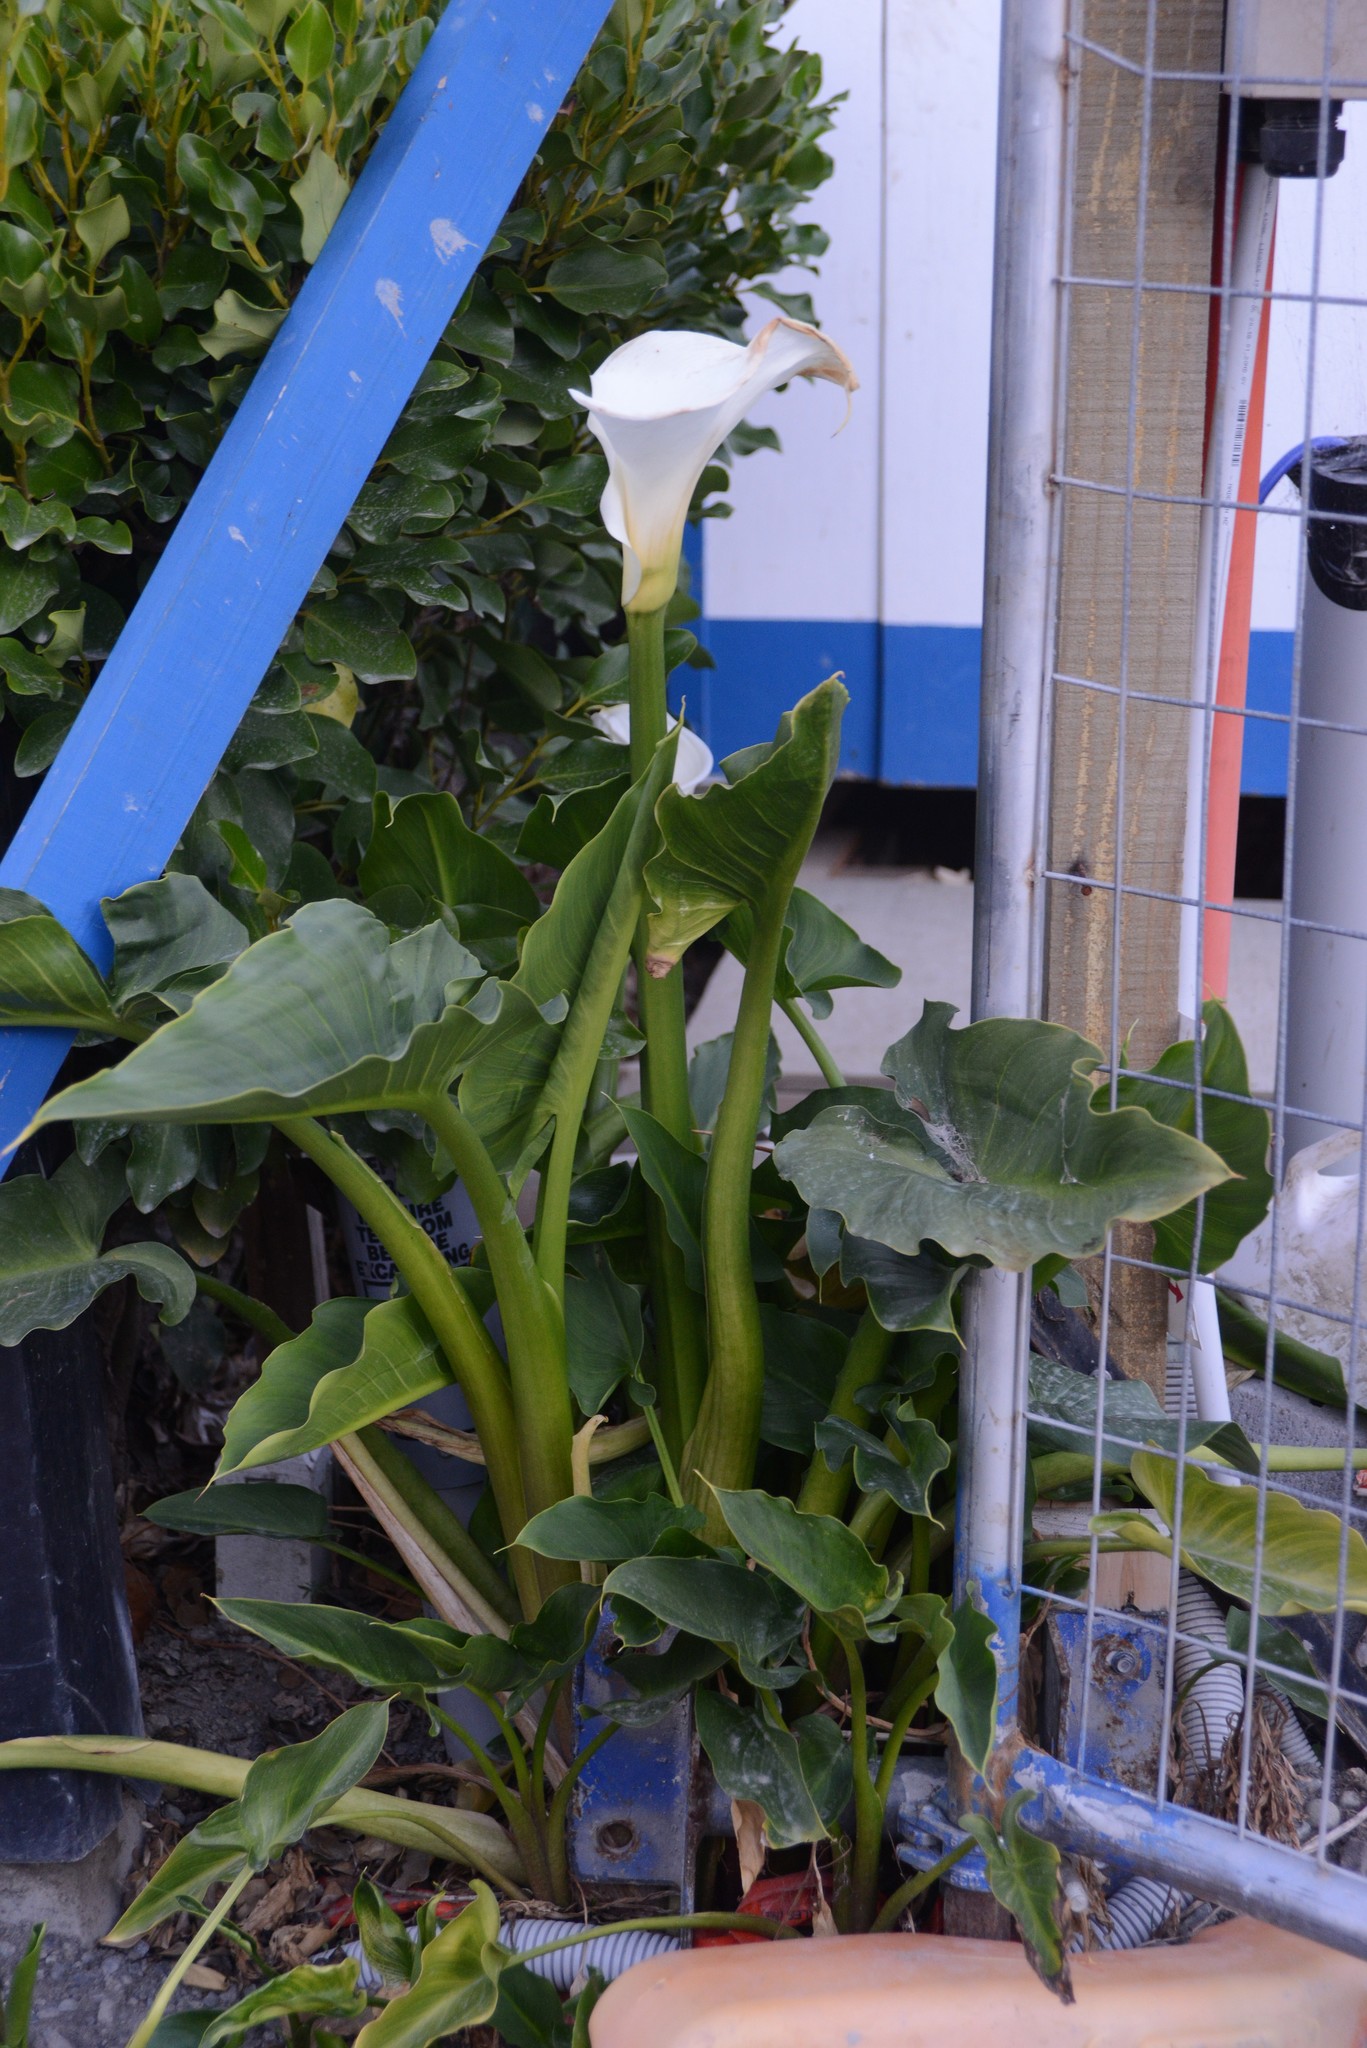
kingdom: Plantae
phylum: Tracheophyta
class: Liliopsida
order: Alismatales
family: Araceae
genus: Zantedeschia
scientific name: Zantedeschia aethiopica
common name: Altar-lily
